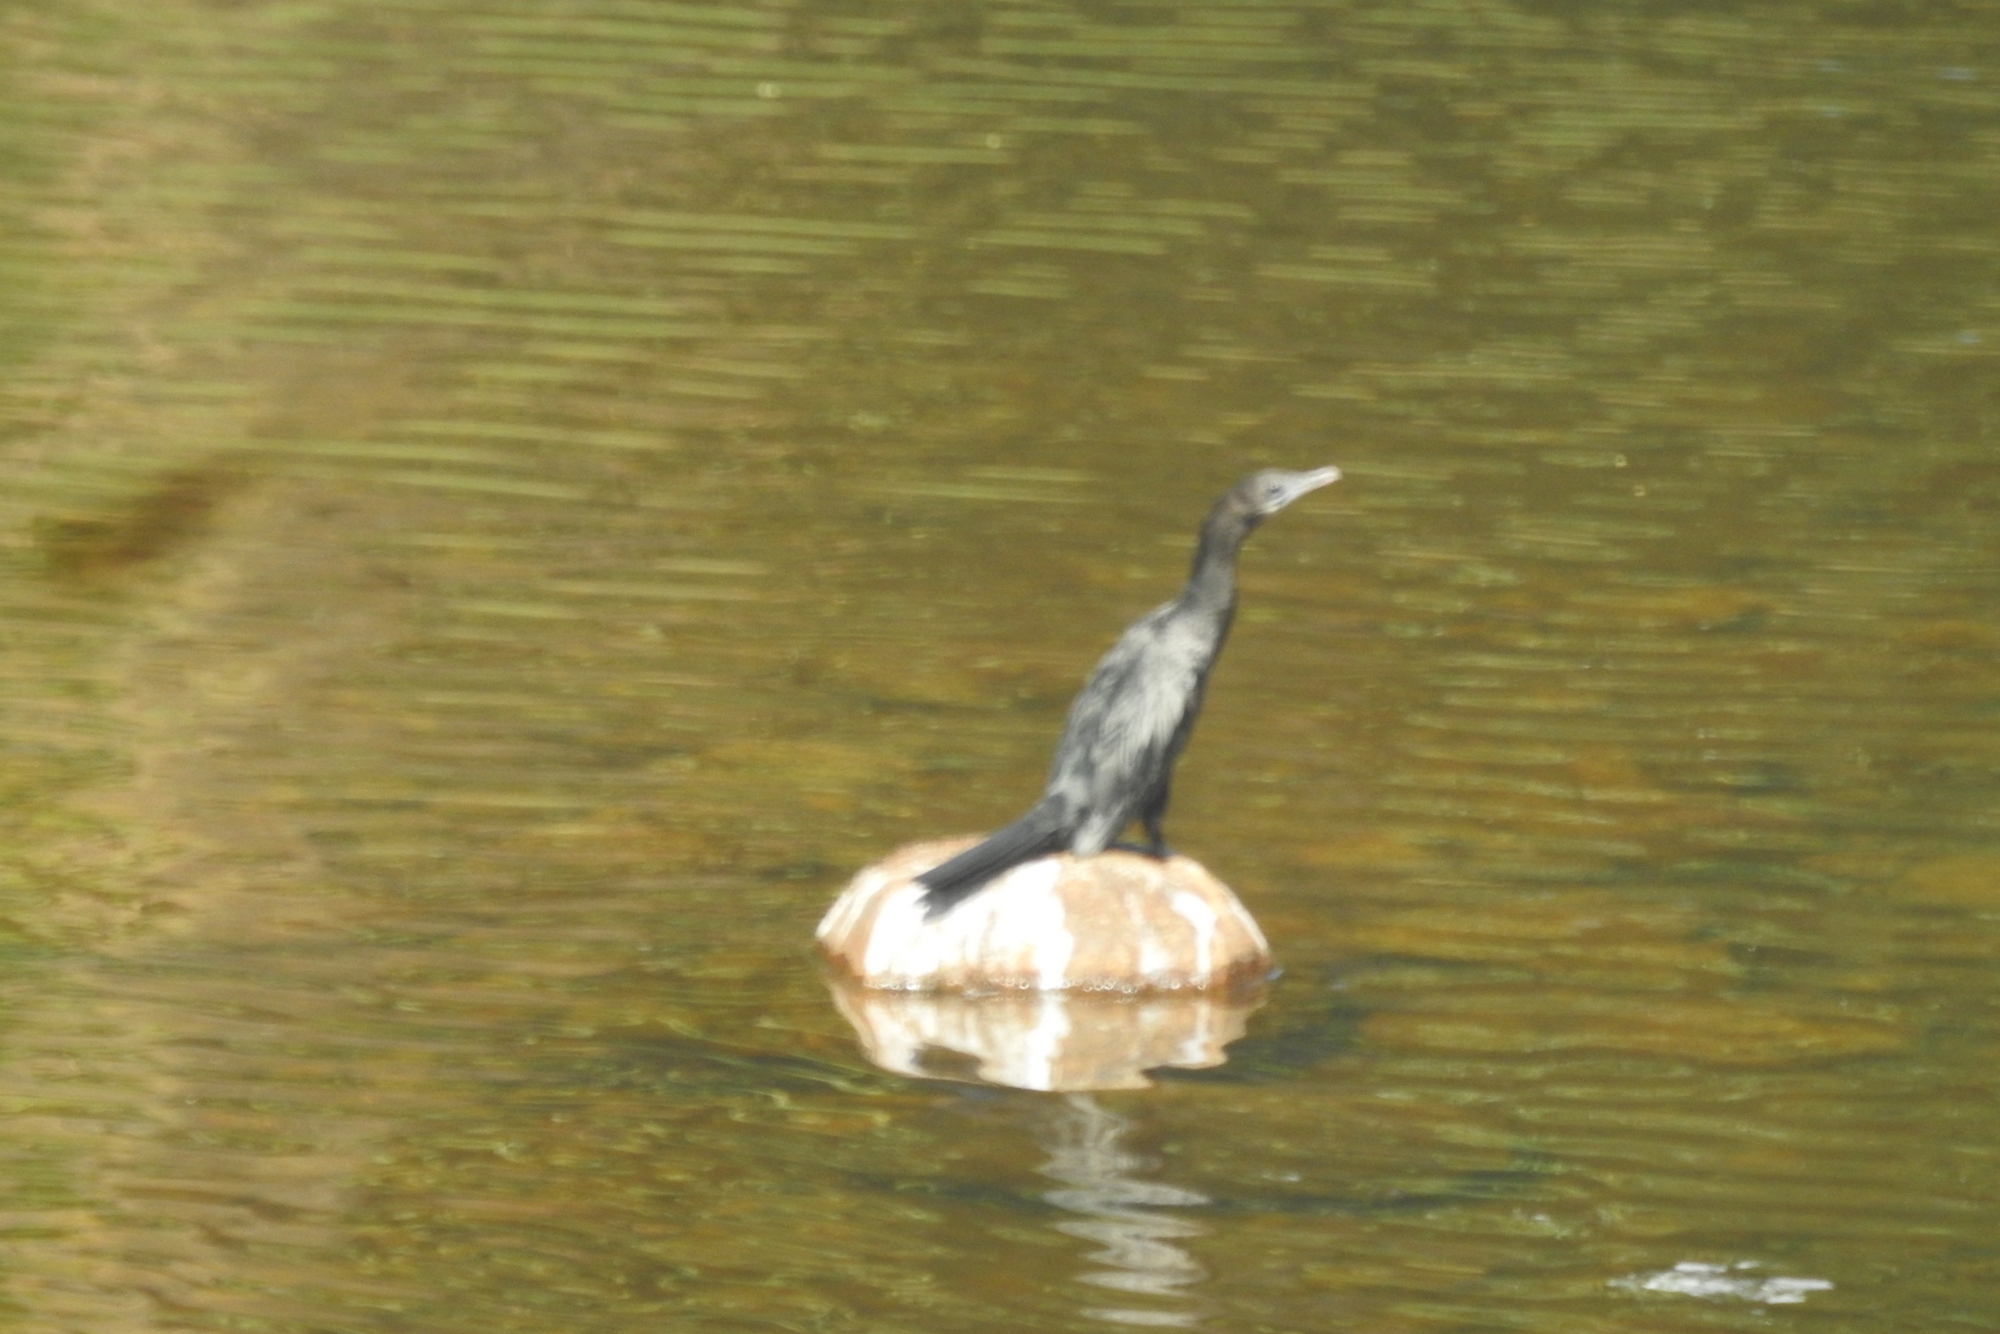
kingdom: Animalia
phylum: Chordata
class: Aves
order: Suliformes
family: Phalacrocoracidae
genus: Microcarbo
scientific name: Microcarbo niger
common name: Little cormorant
